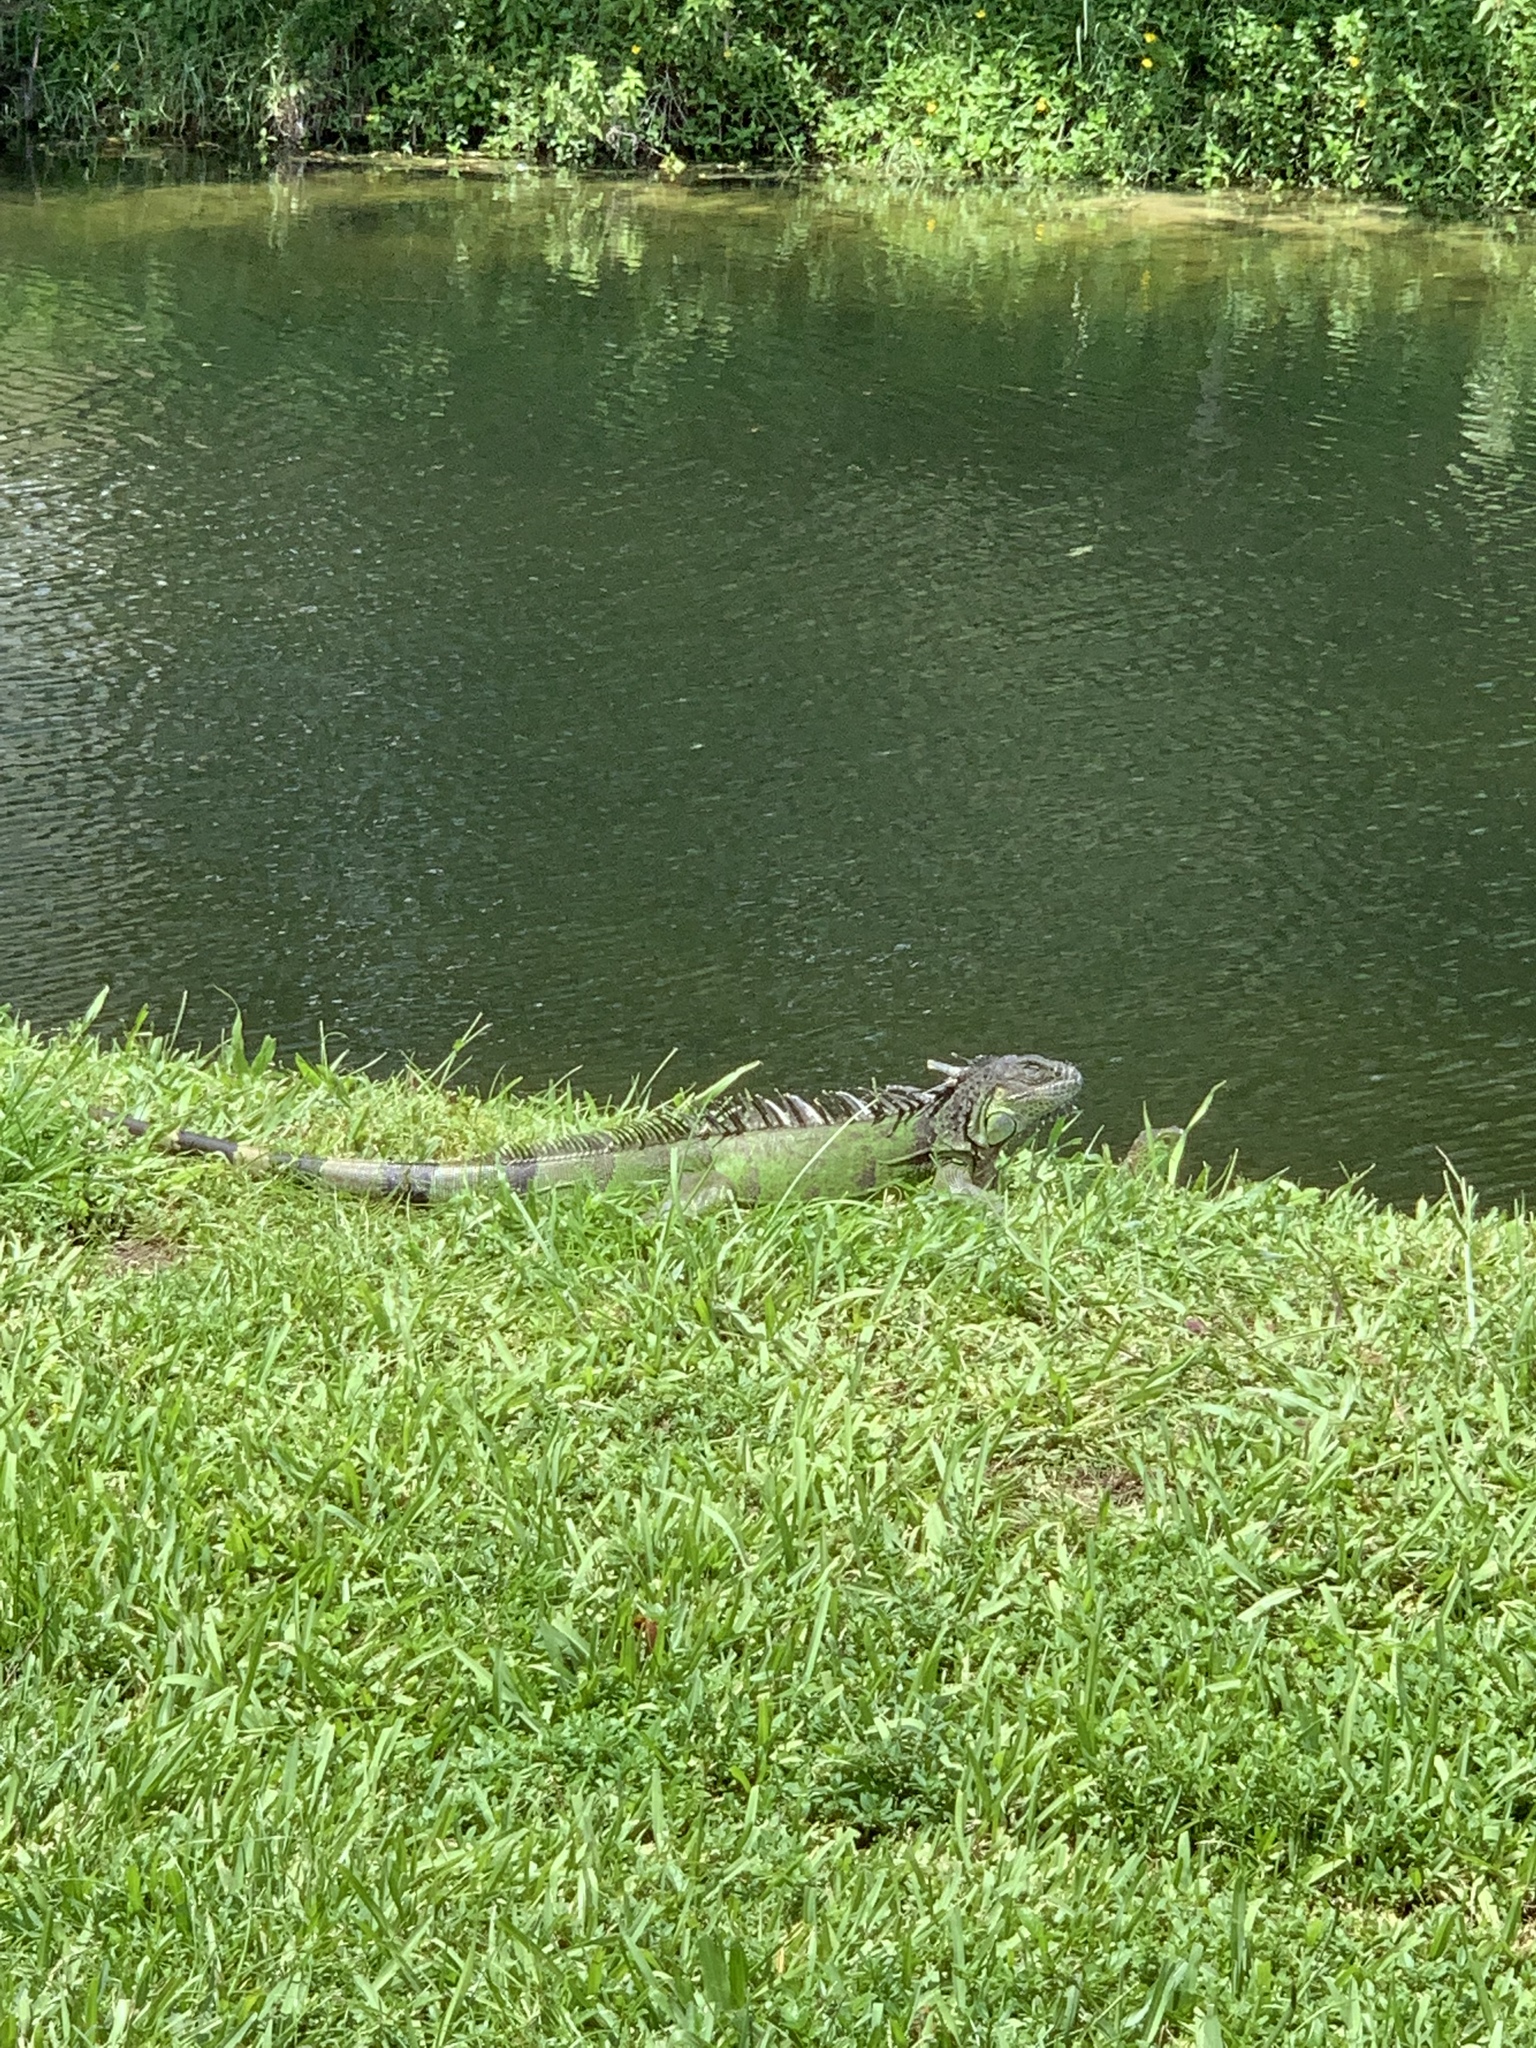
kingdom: Animalia
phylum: Chordata
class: Squamata
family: Iguanidae
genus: Iguana
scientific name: Iguana iguana
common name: Green iguana
